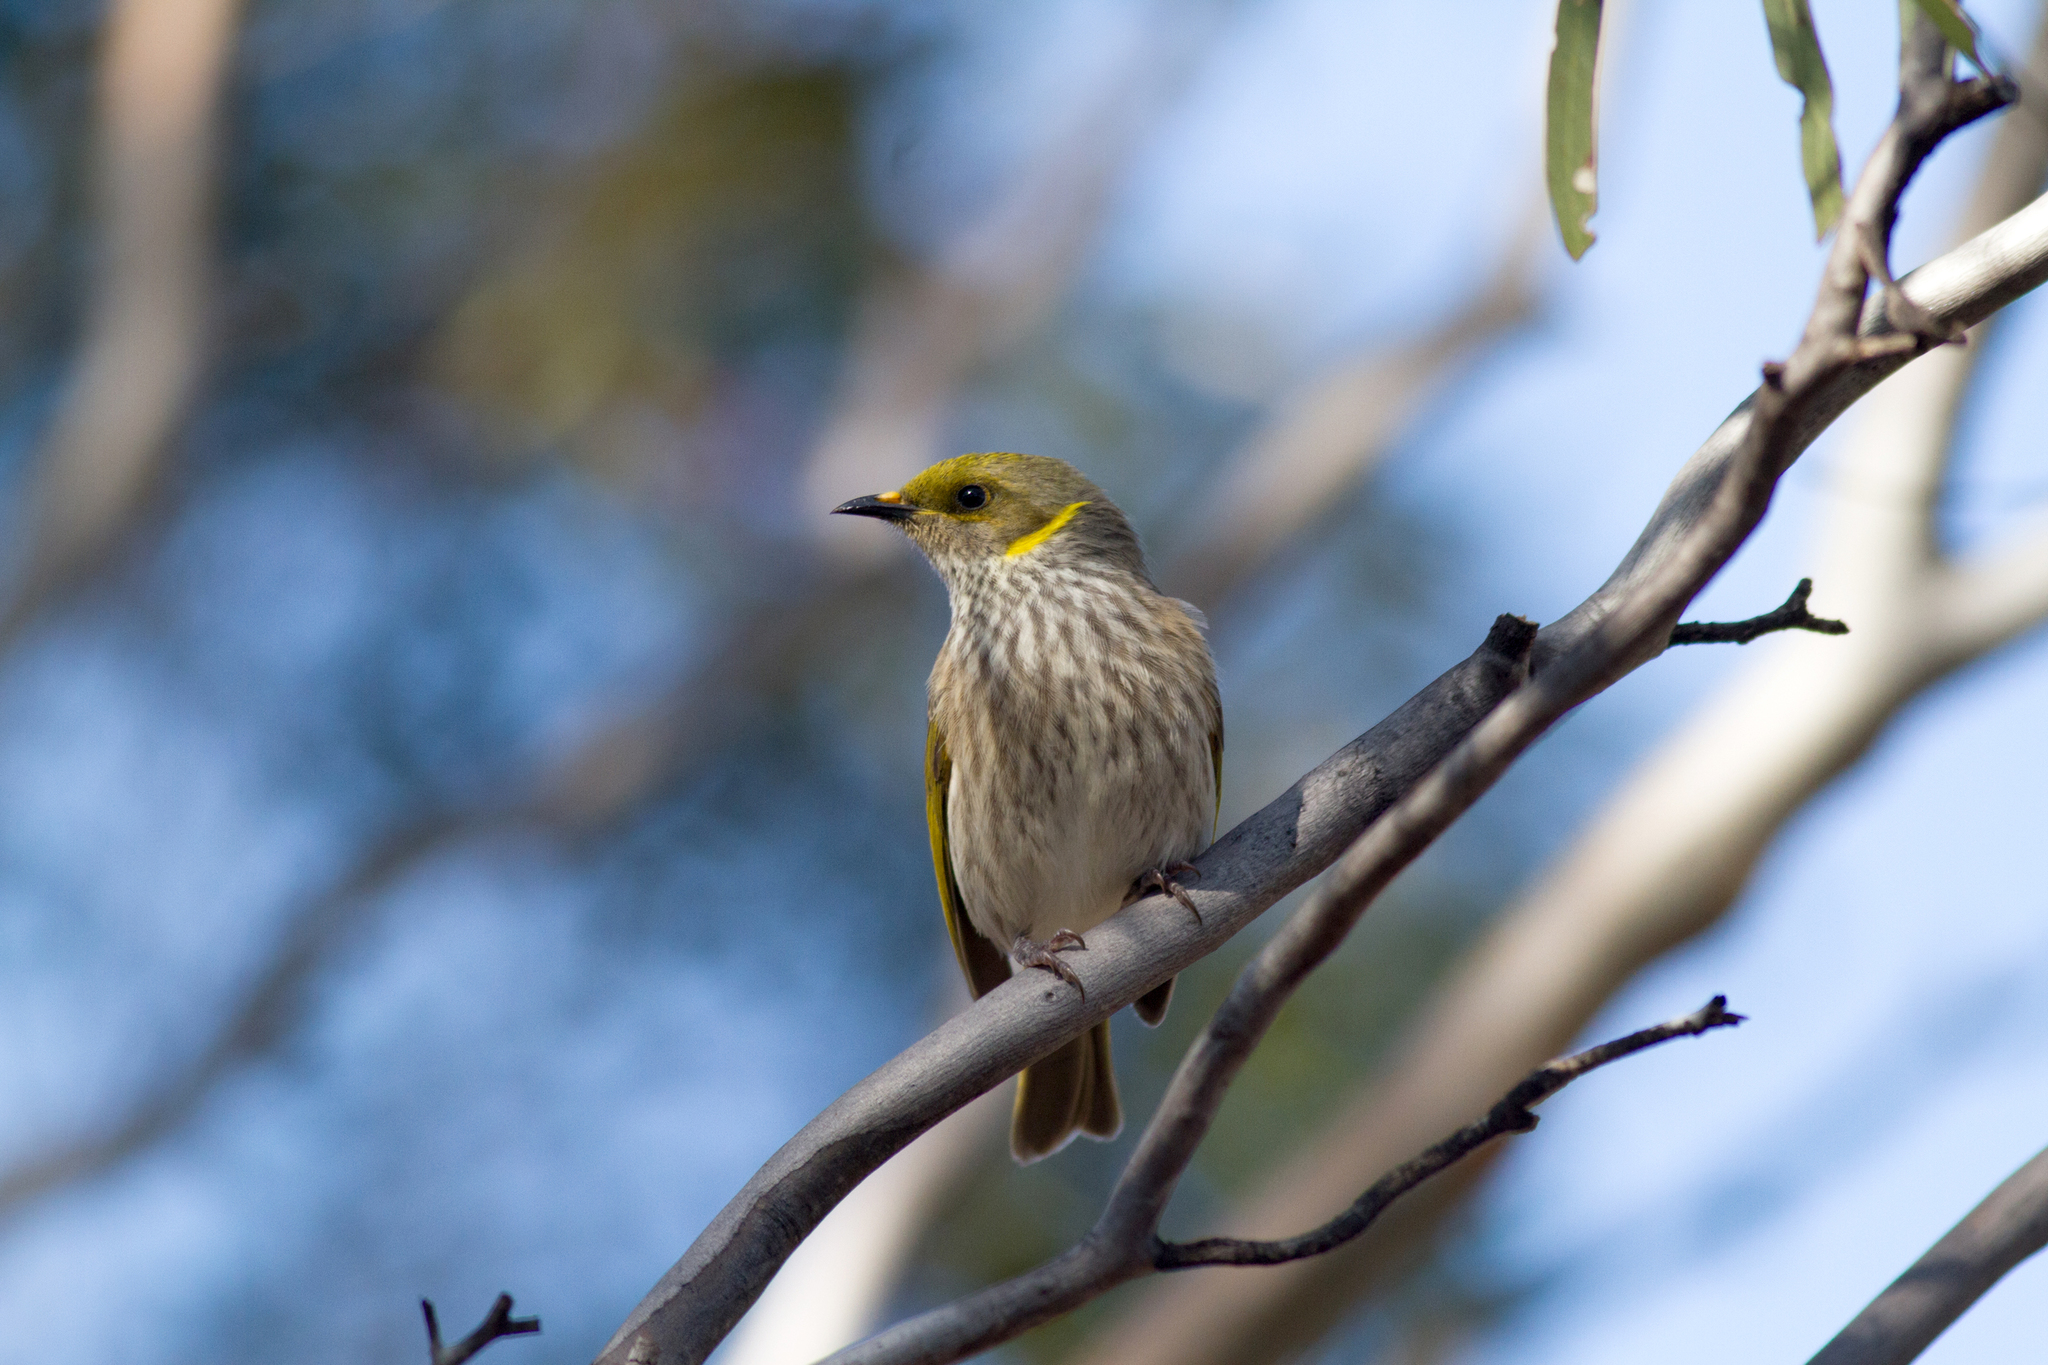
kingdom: Animalia
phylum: Chordata
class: Aves
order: Passeriformes
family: Meliphagidae
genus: Ptilotula
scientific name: Ptilotula ornata
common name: Yellow-plumed honeyeater
